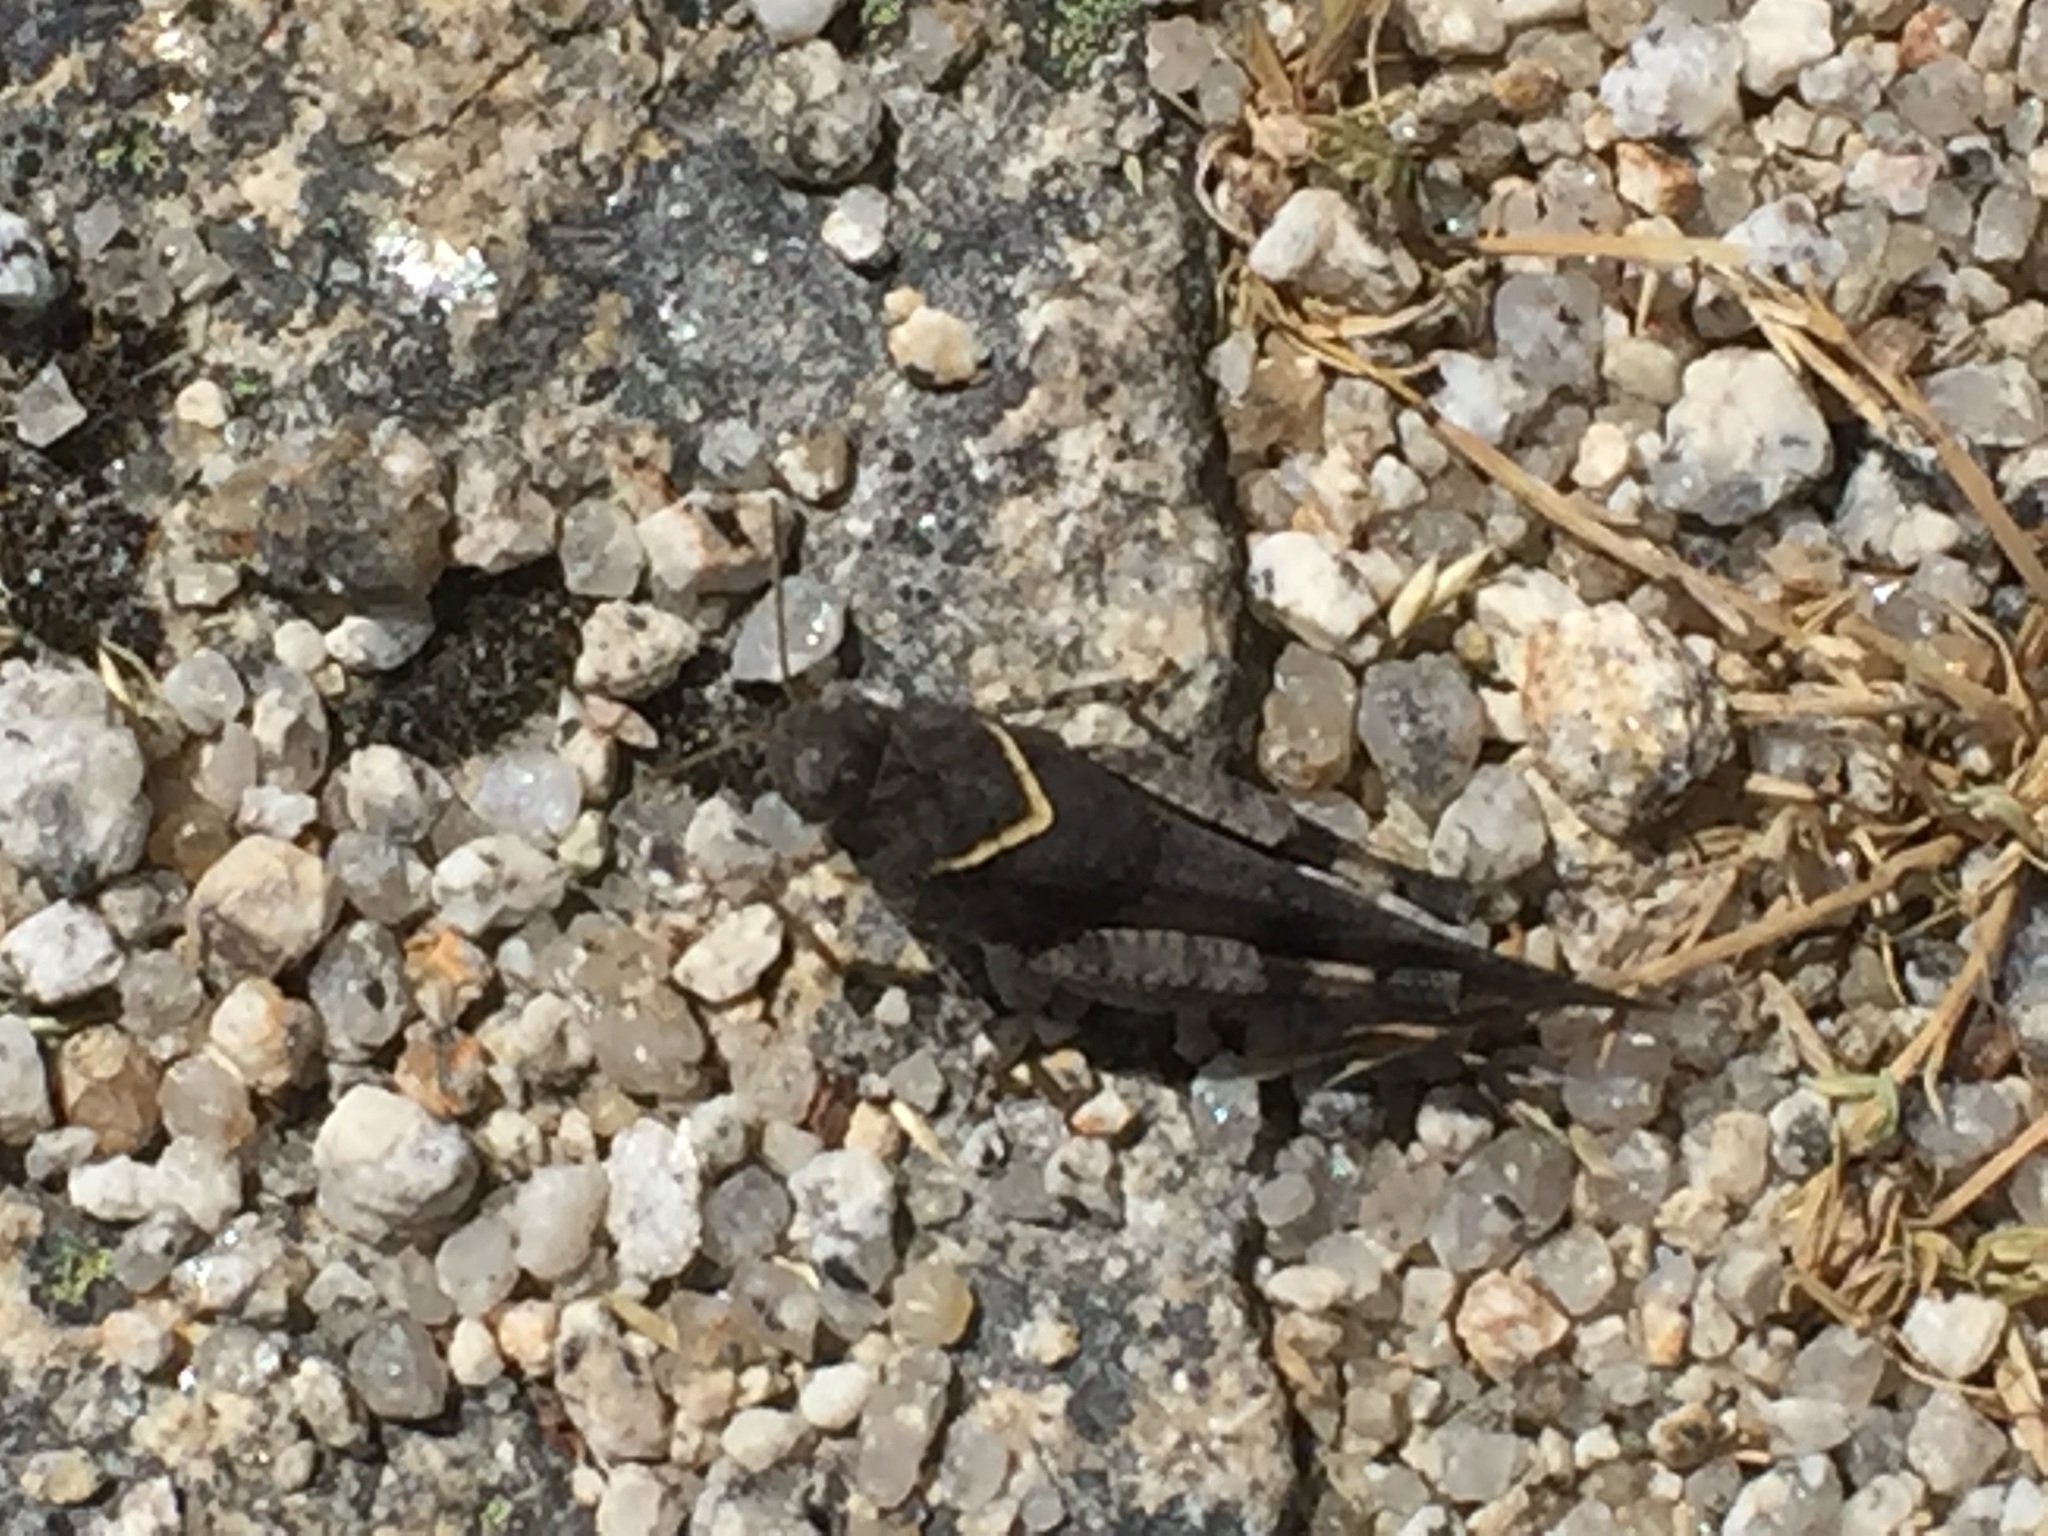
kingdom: Animalia
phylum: Arthropoda
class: Insecta
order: Orthoptera
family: Acrididae
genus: Oedipoda
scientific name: Oedipoda caerulescens
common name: Blue-winged grasshopper
